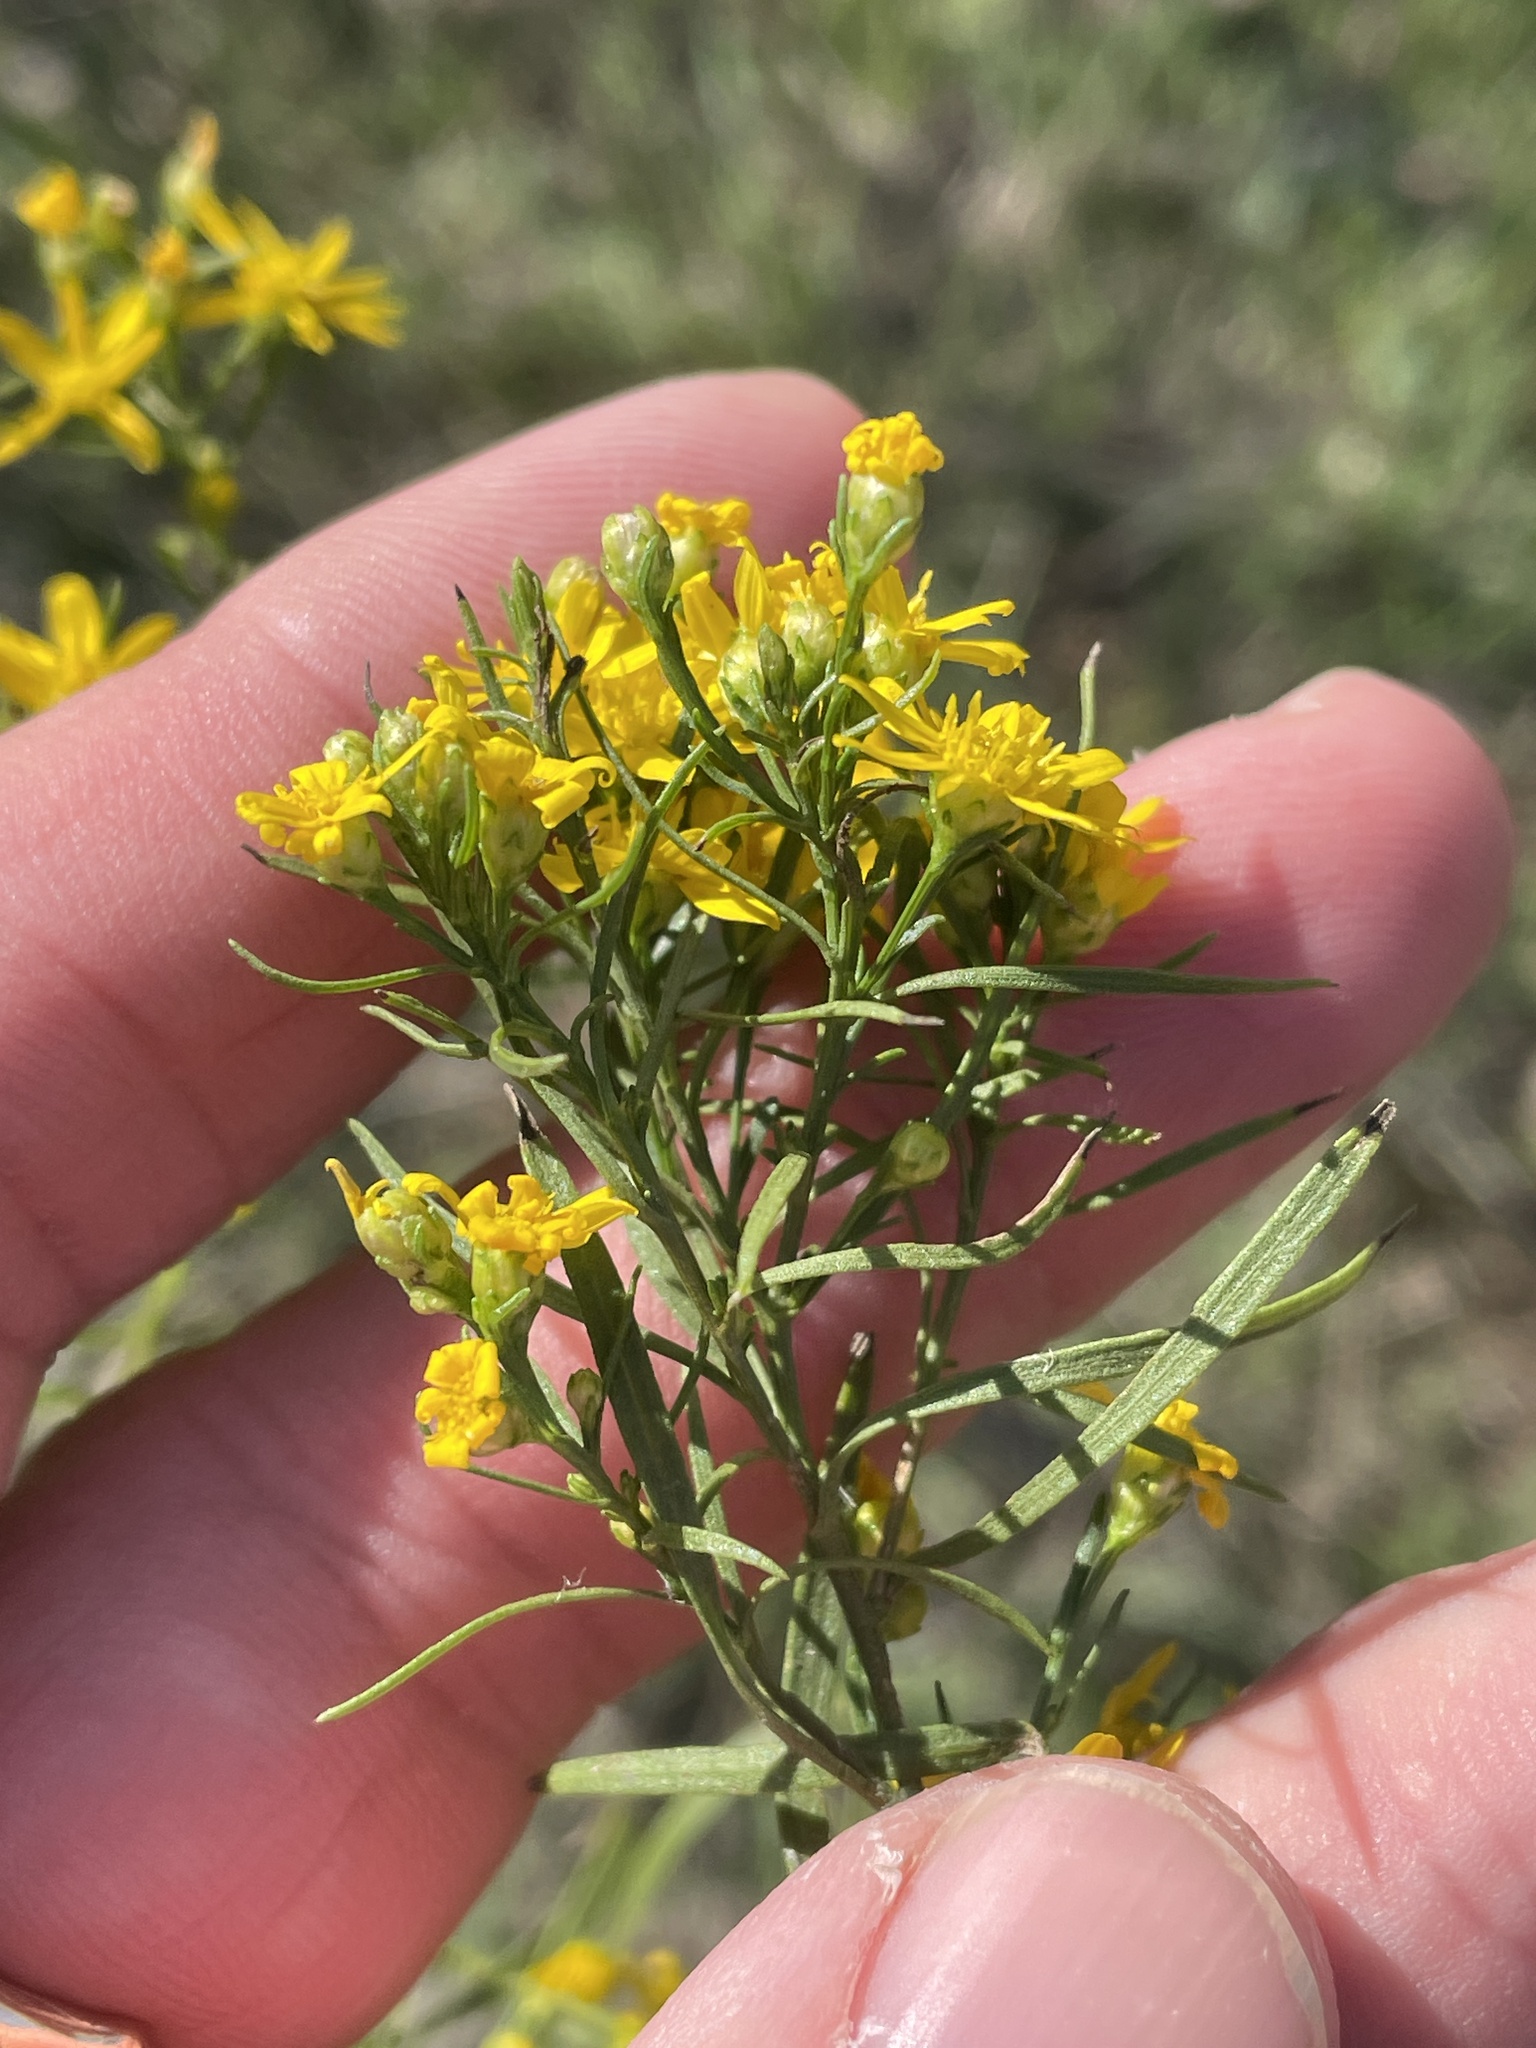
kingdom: Plantae
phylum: Tracheophyta
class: Magnoliopsida
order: Asterales
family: Asteraceae
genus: Amphiachyris
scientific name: Amphiachyris dracunculoides
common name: Broomweed
